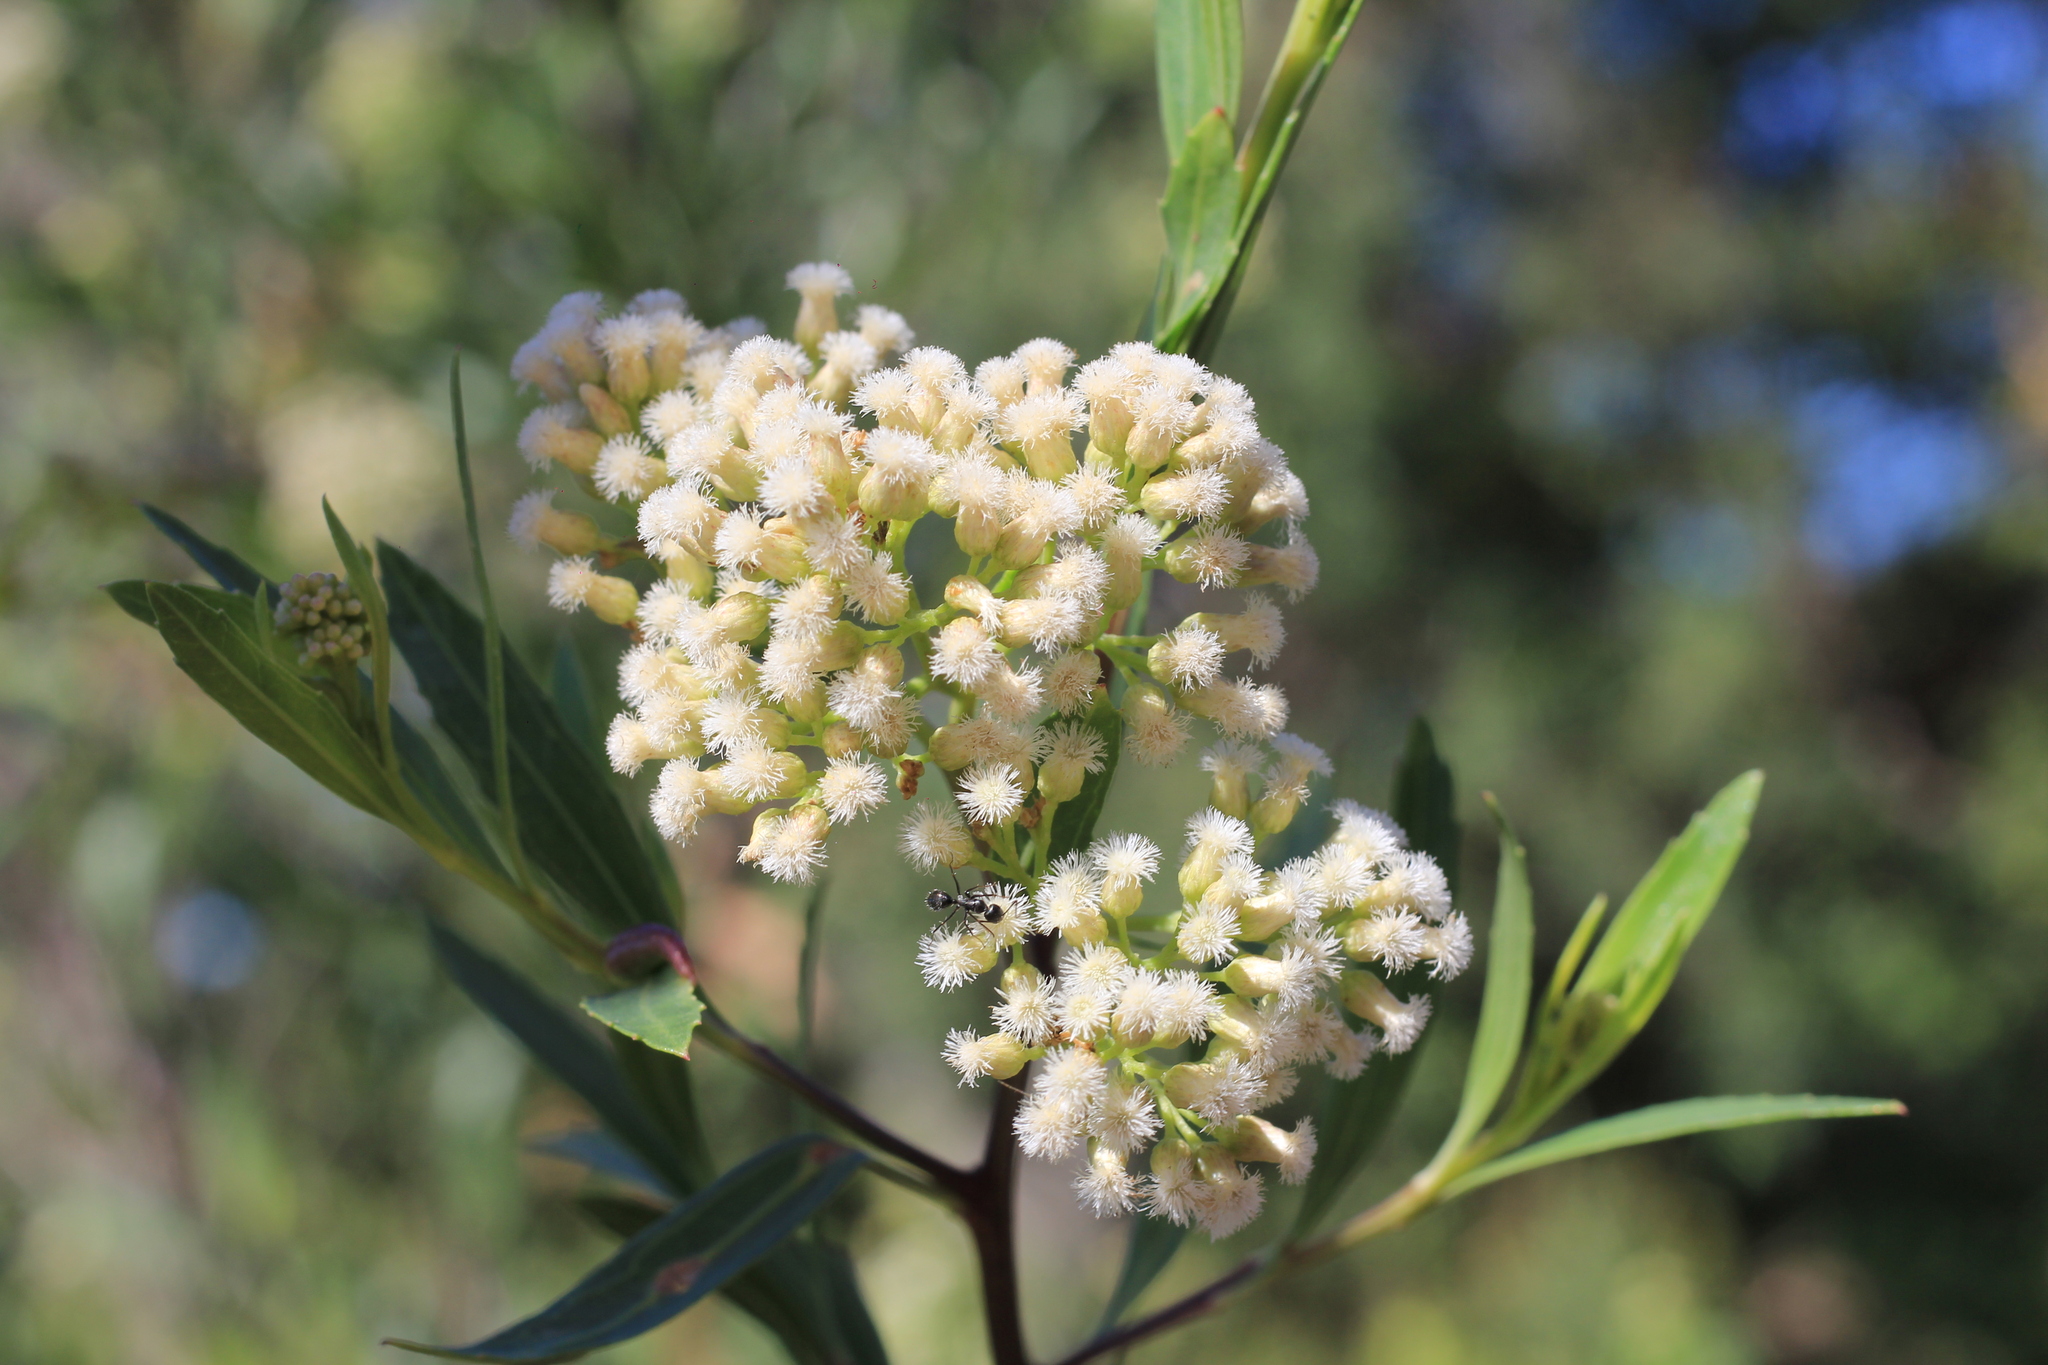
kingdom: Plantae
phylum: Tracheophyta
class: Magnoliopsida
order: Asterales
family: Asteraceae
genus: Baccharis
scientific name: Baccharis salicifolia
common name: Sticky baccharis
